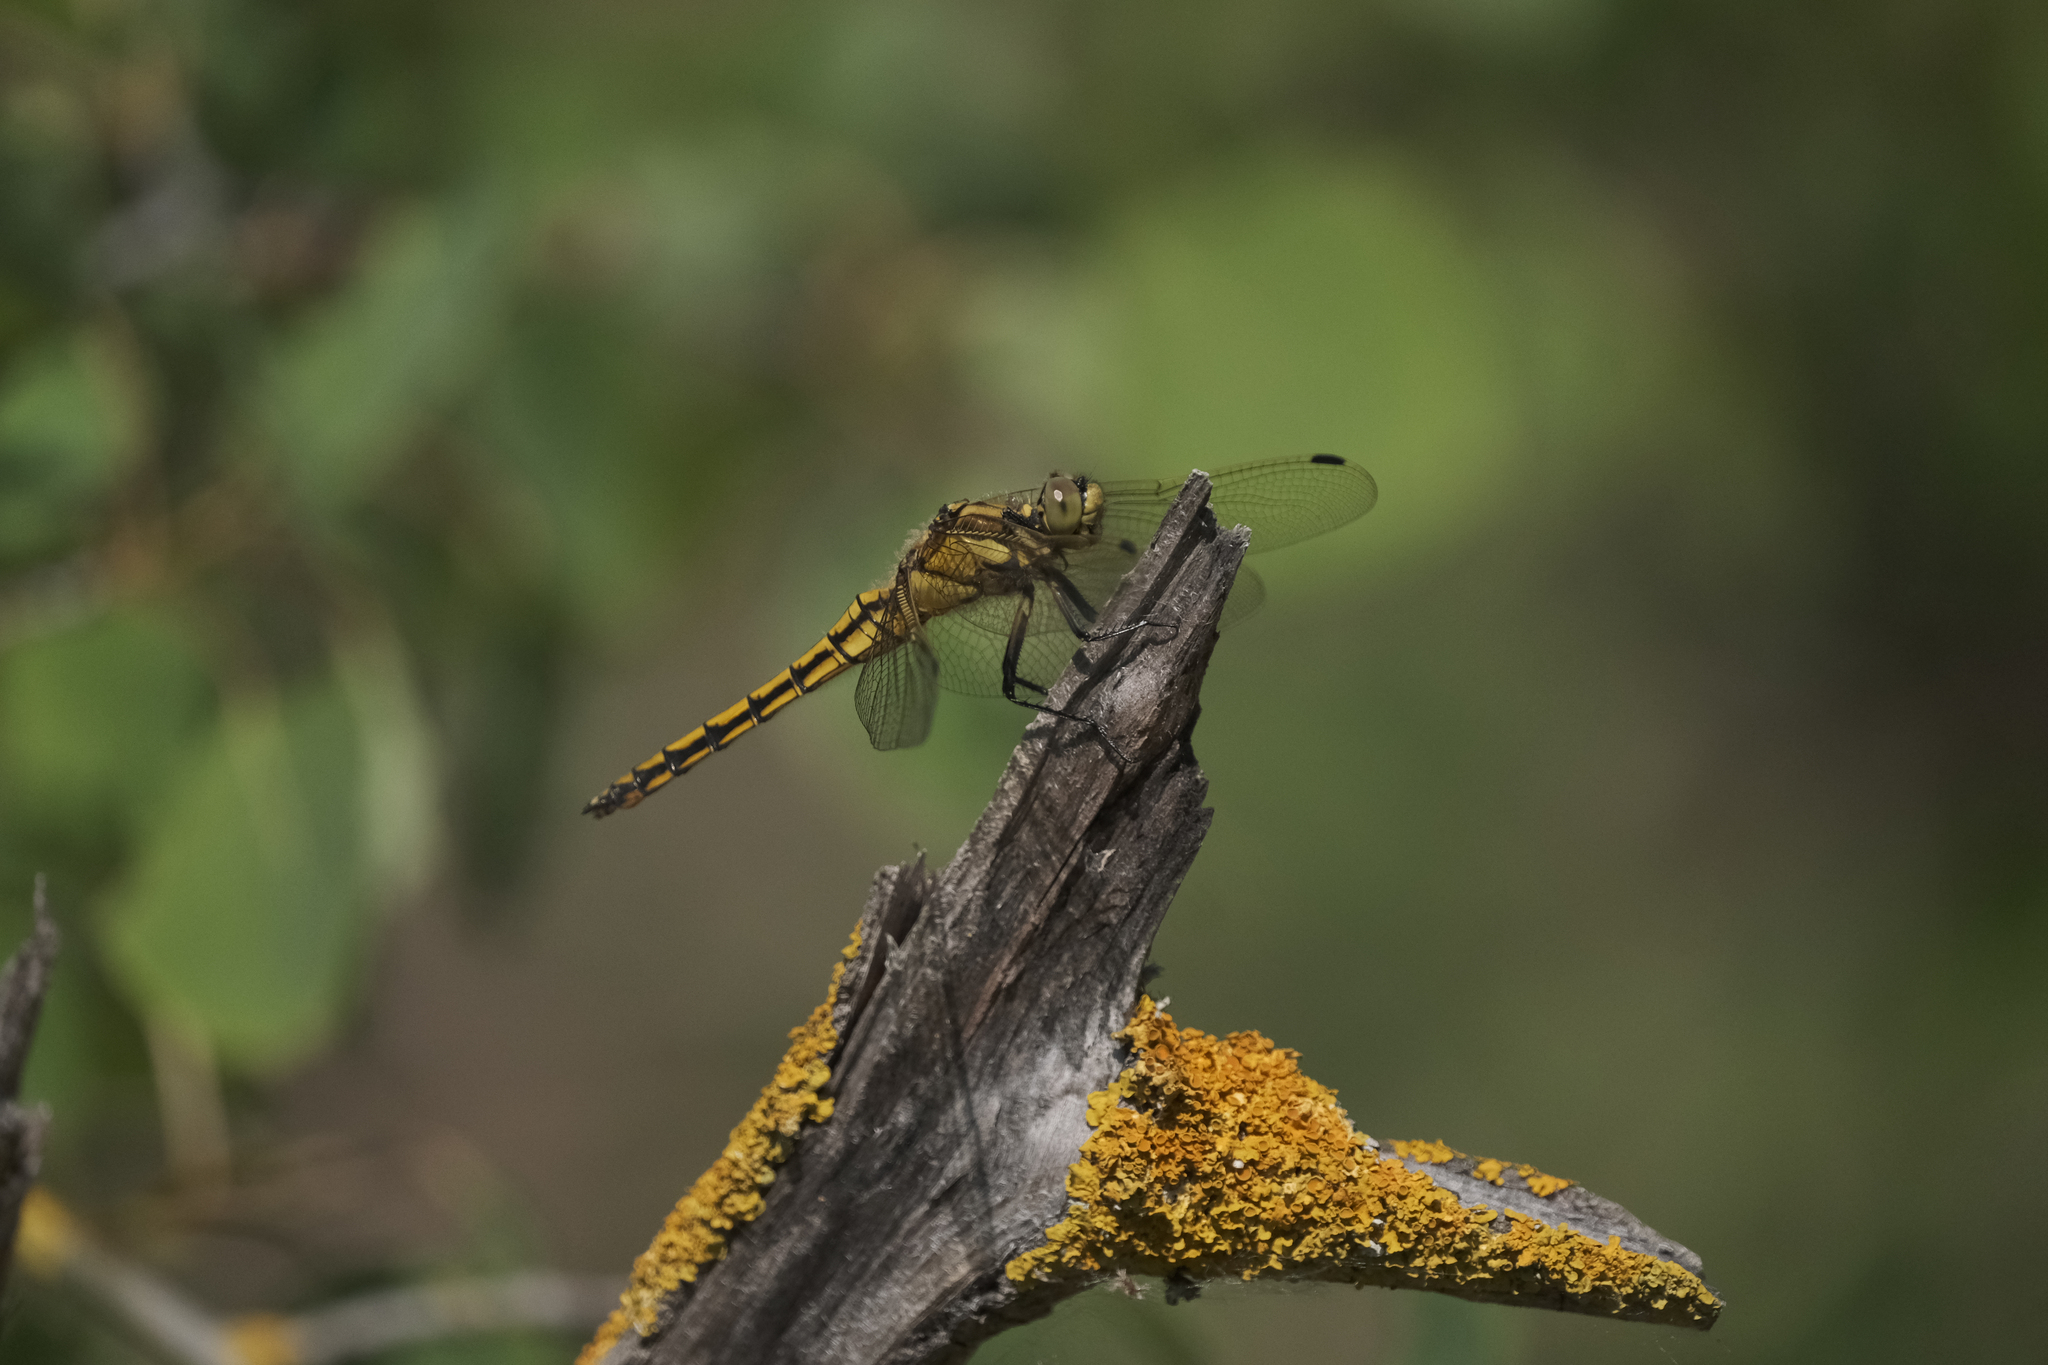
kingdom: Animalia
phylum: Arthropoda
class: Insecta
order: Odonata
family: Libellulidae
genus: Orthetrum
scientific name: Orthetrum cancellatum
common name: Black-tailed skimmer
